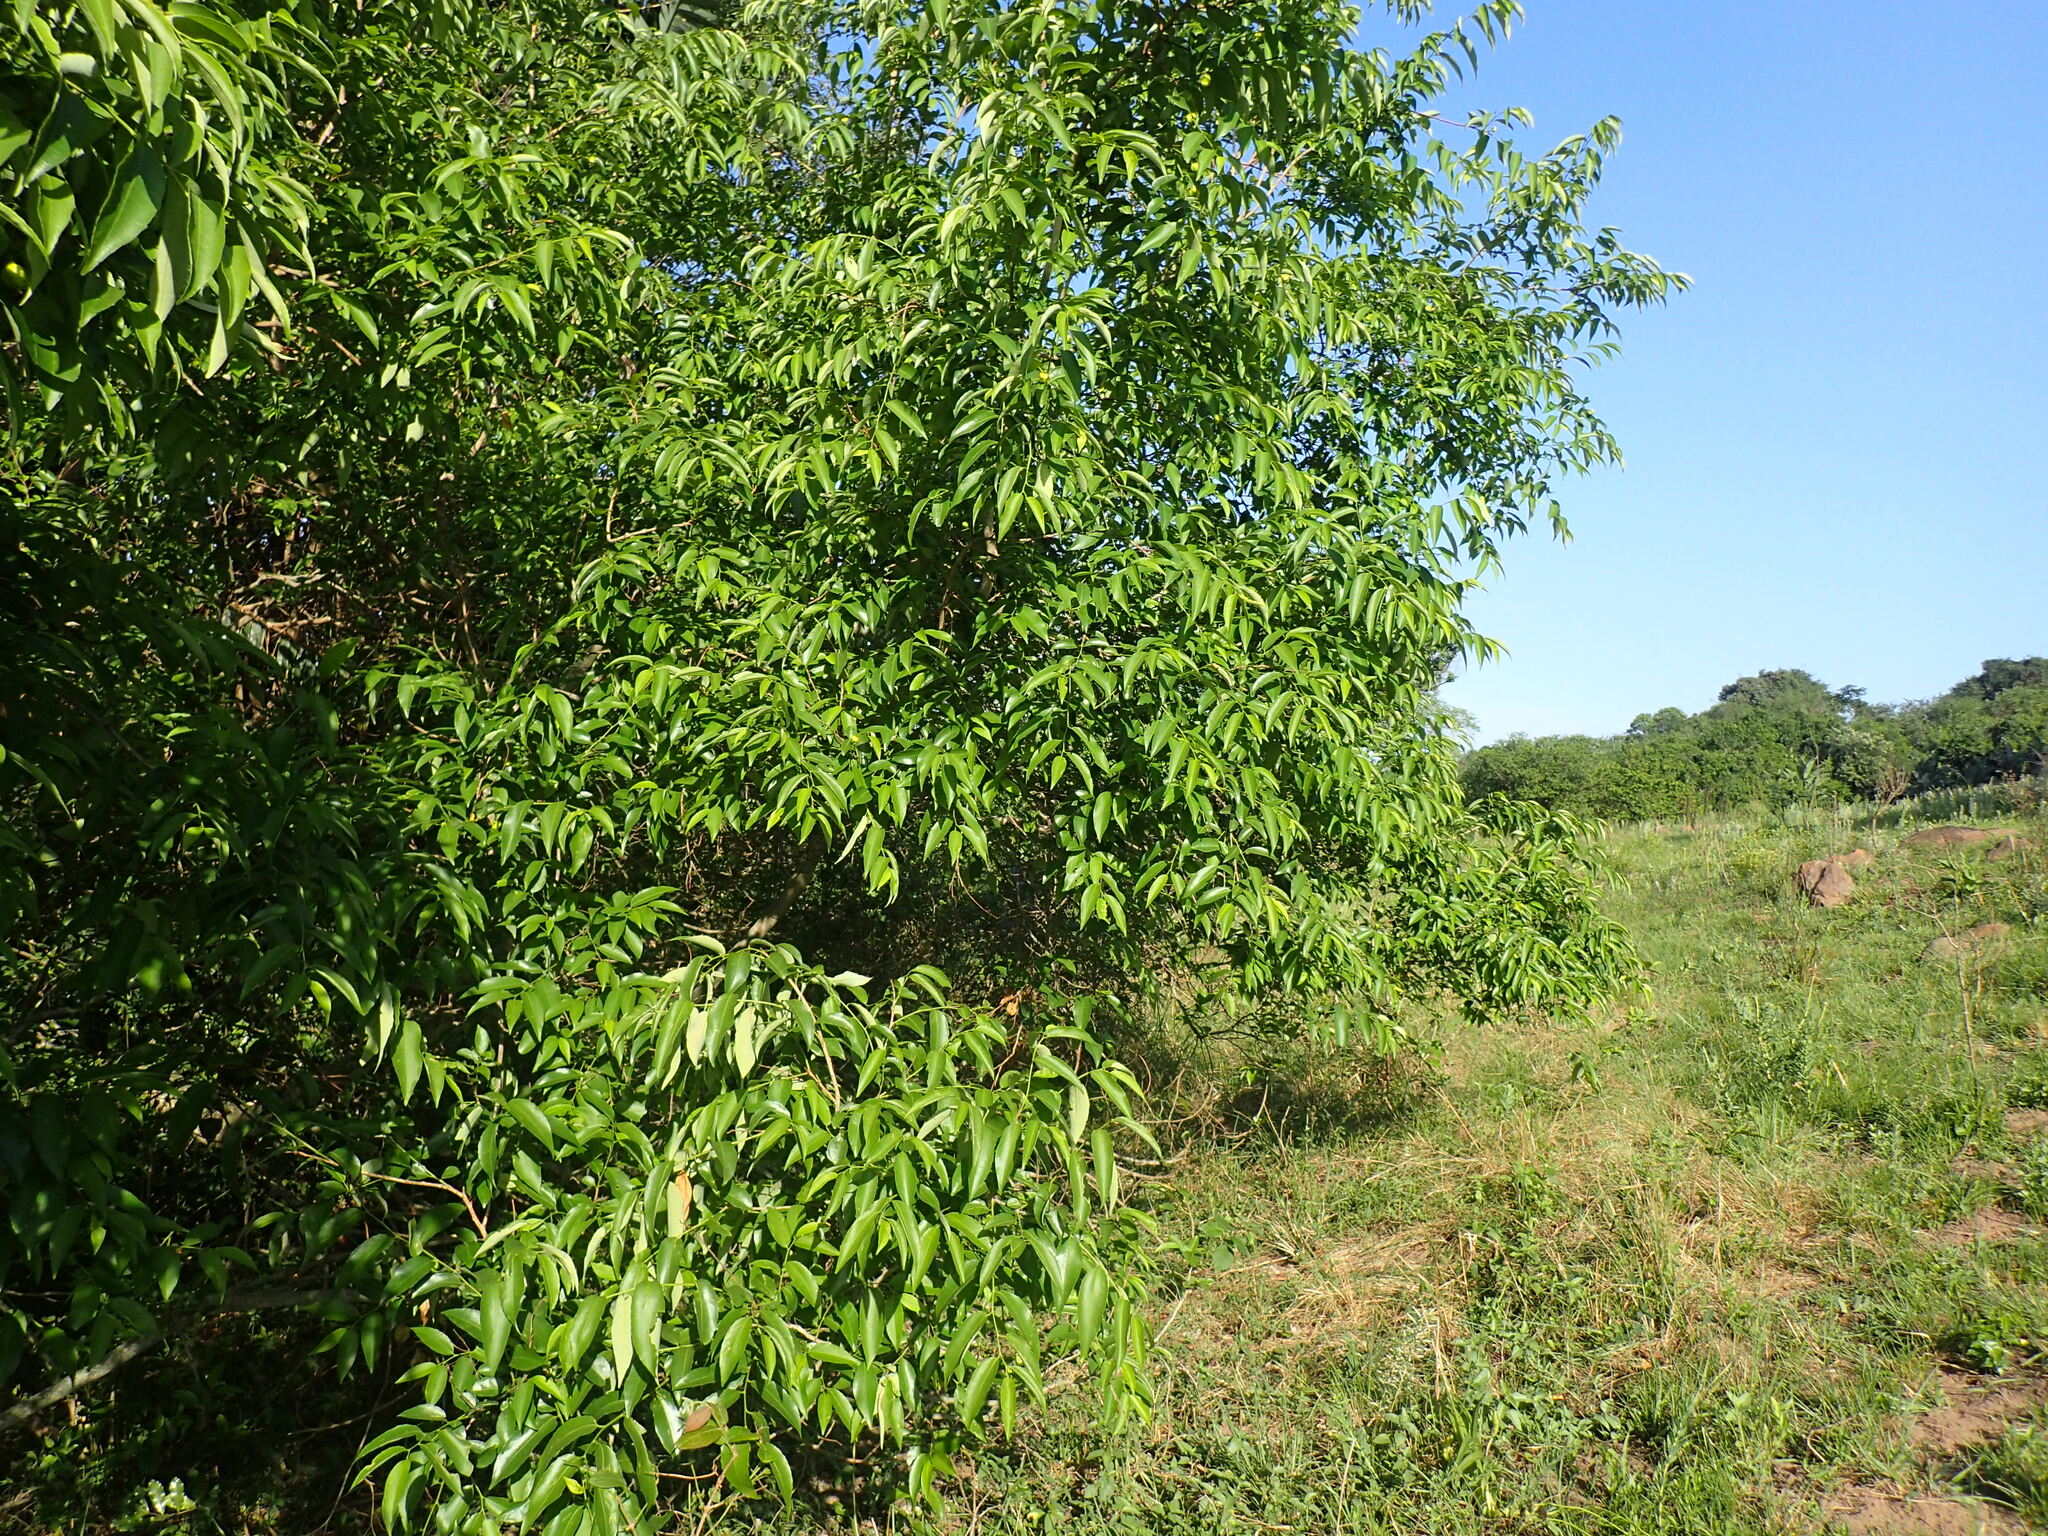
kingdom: Plantae
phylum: Tracheophyta
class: Magnoliopsida
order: Malpighiales
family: Euphorbiaceae
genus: Sclerocroton
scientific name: Sclerocroton integerrimus
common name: Duiker berry
